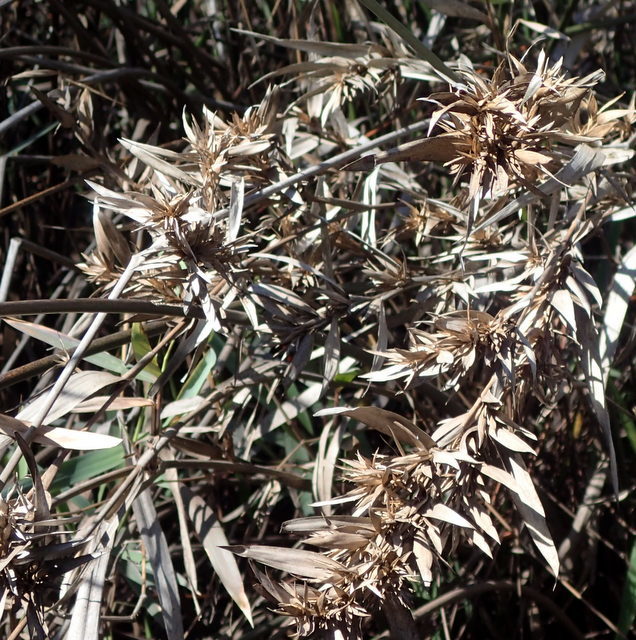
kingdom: Plantae
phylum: Tracheophyta
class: Liliopsida
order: Poales
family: Poaceae
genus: Dichanthelium
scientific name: Dichanthelium scabriusculum
